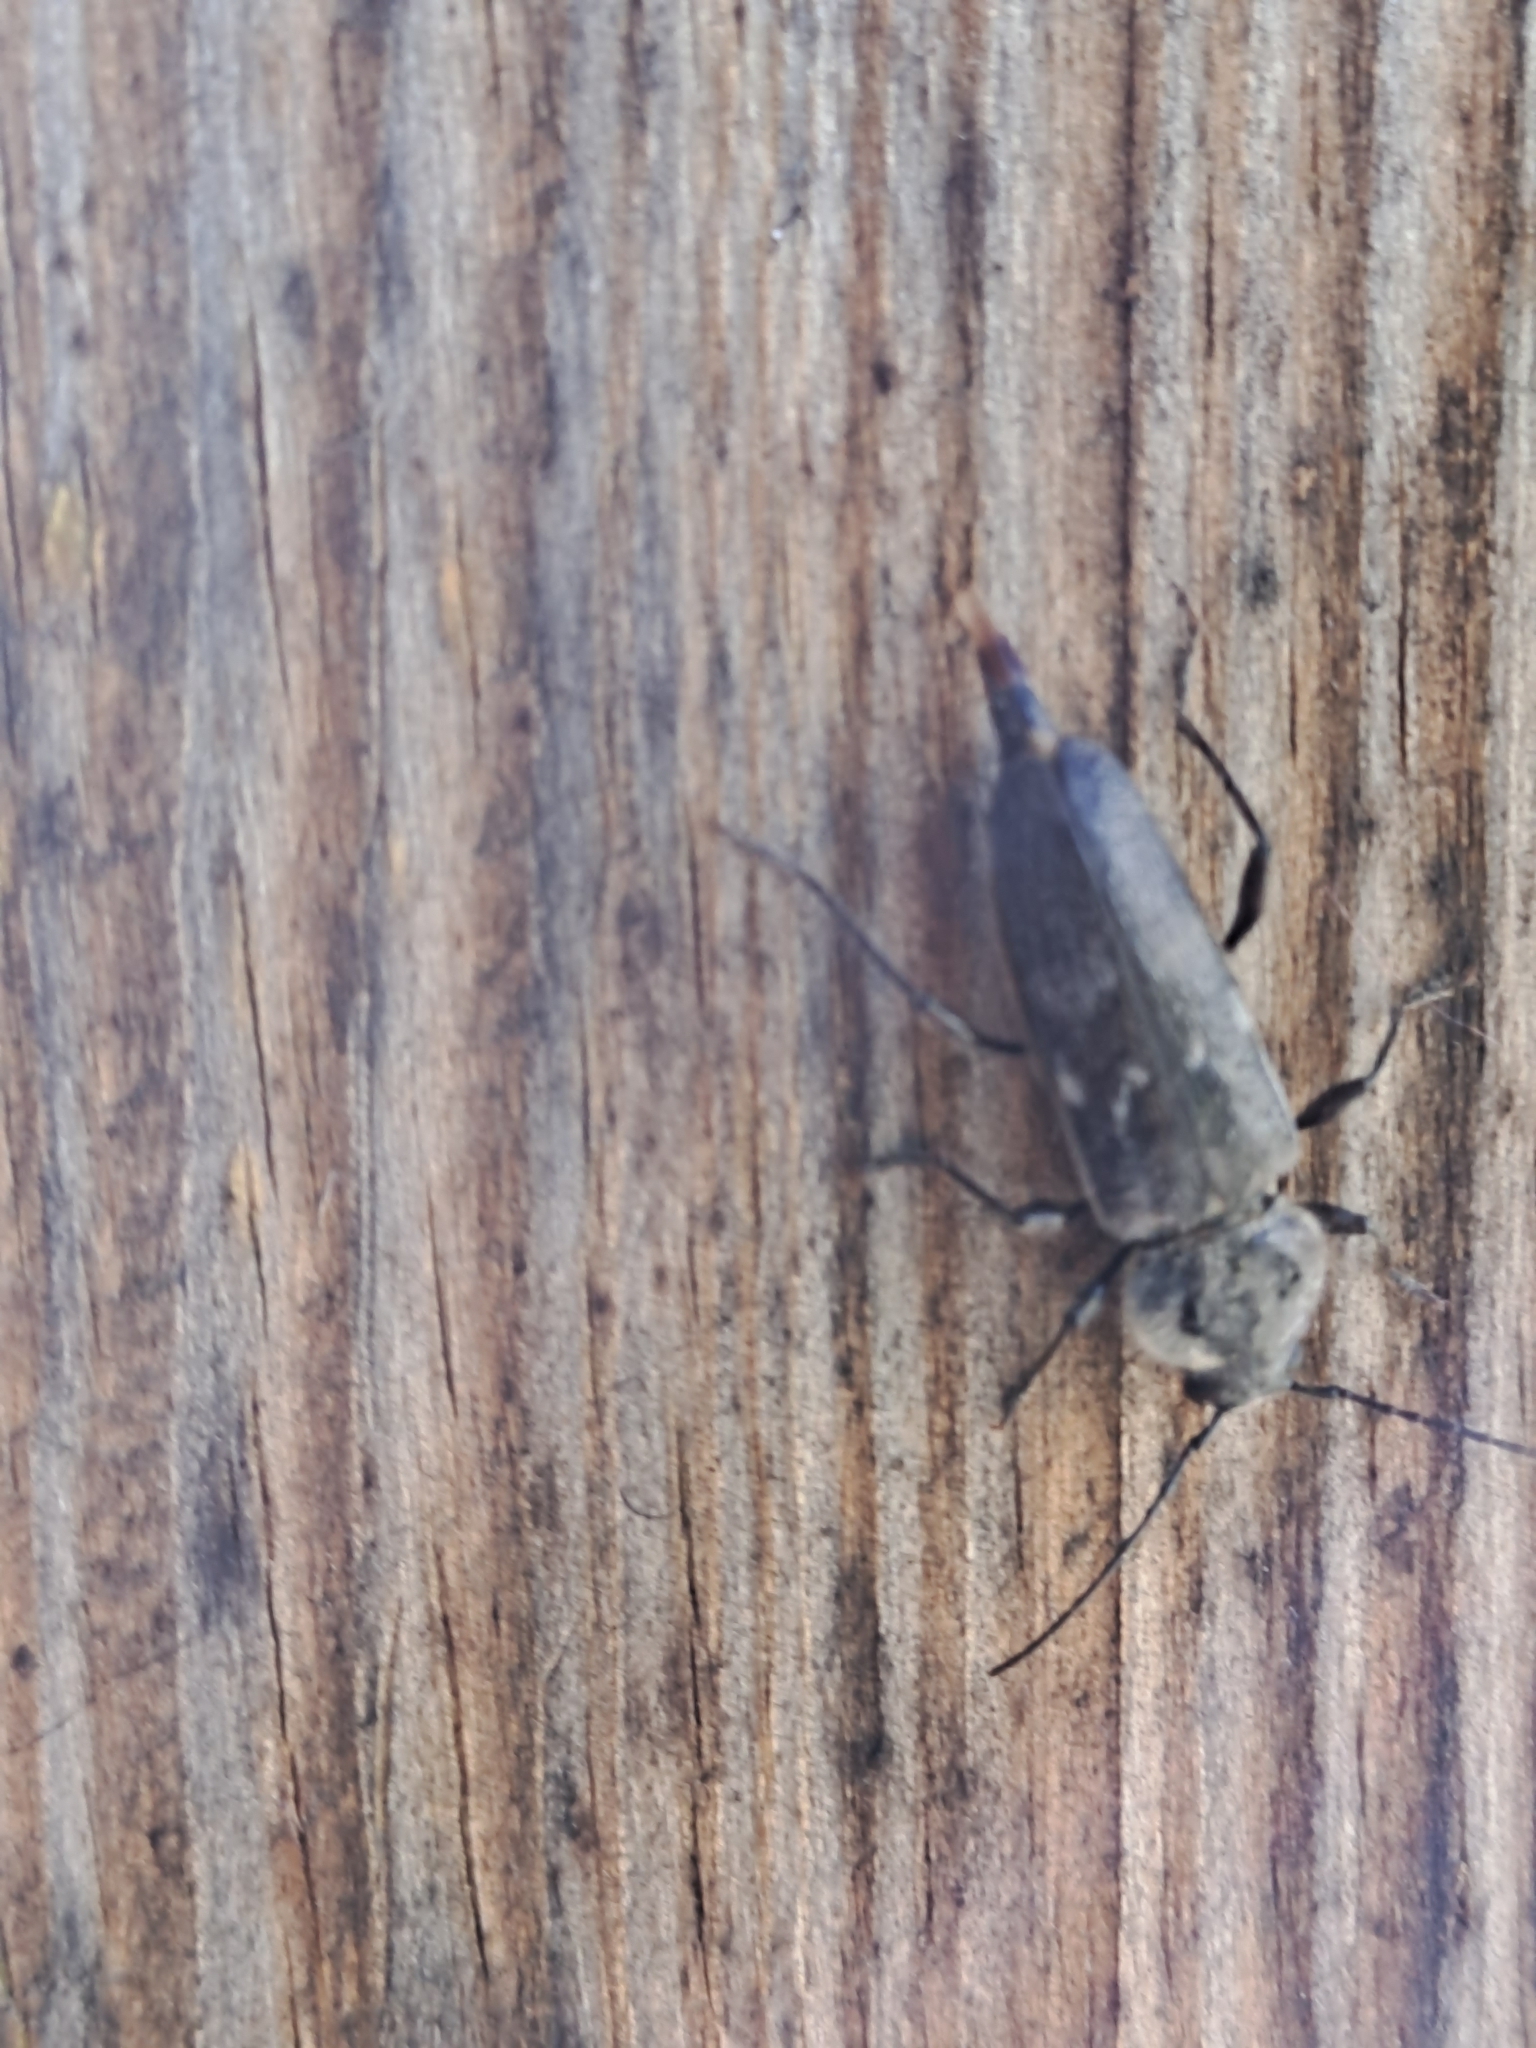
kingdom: Animalia
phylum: Arthropoda
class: Insecta
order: Coleoptera
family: Cerambycidae
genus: Hylotrupes
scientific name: Hylotrupes bajulus
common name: Old house borer
